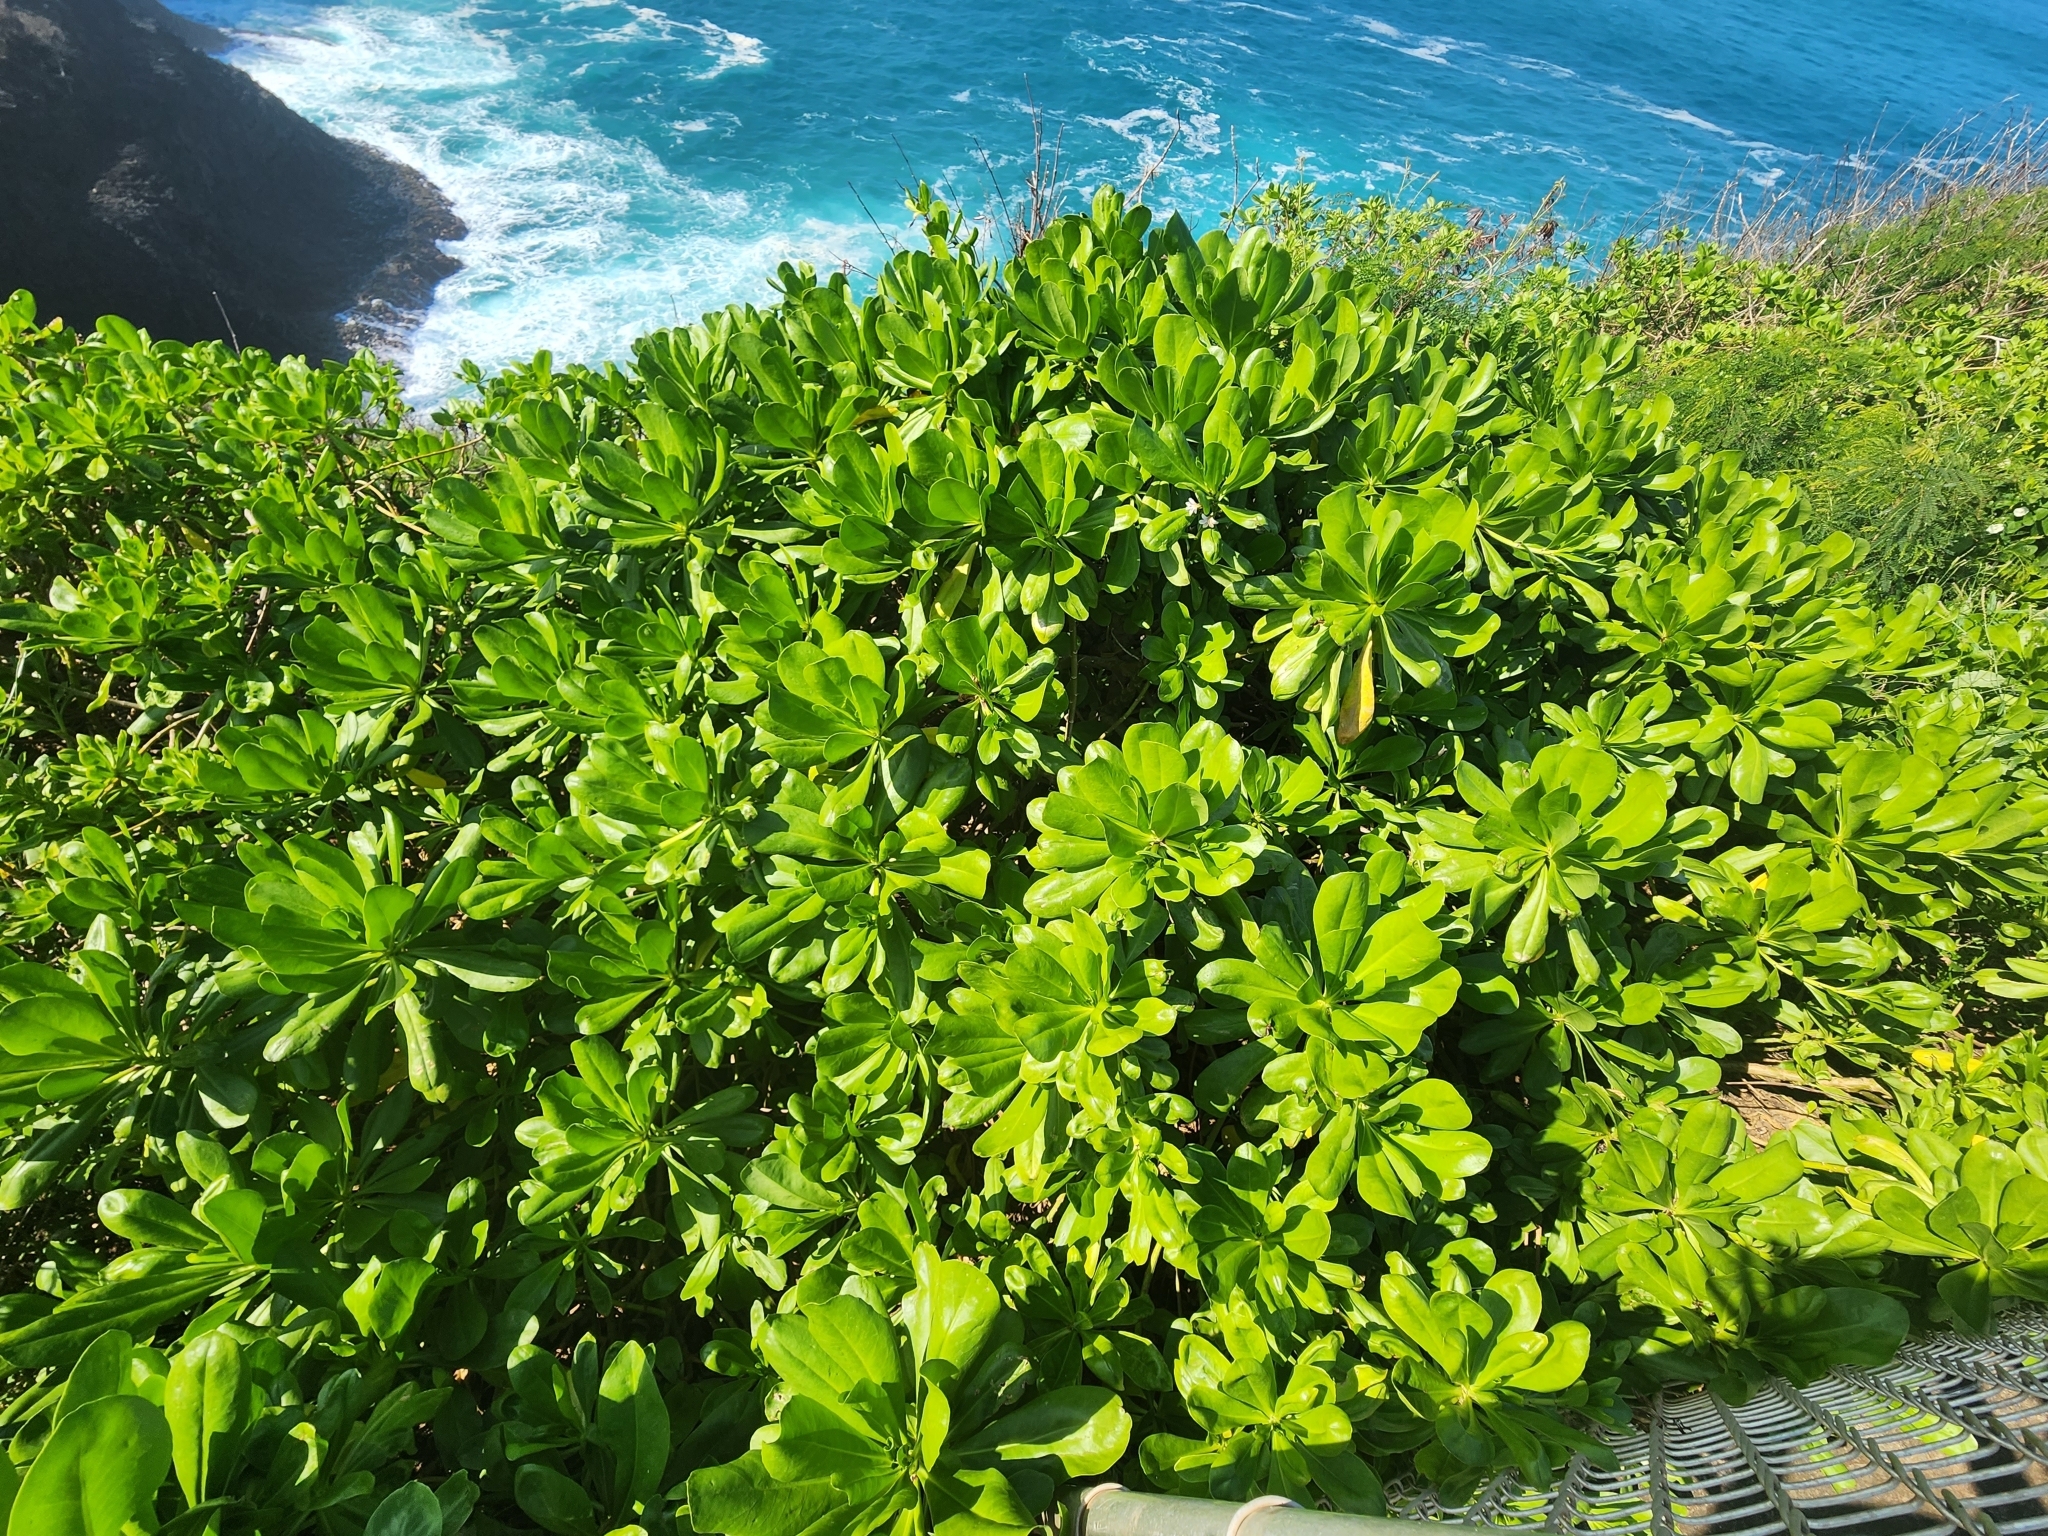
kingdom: Plantae
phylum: Tracheophyta
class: Magnoliopsida
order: Asterales
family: Goodeniaceae
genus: Scaevola
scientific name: Scaevola taccada
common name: Sea lettucetree
